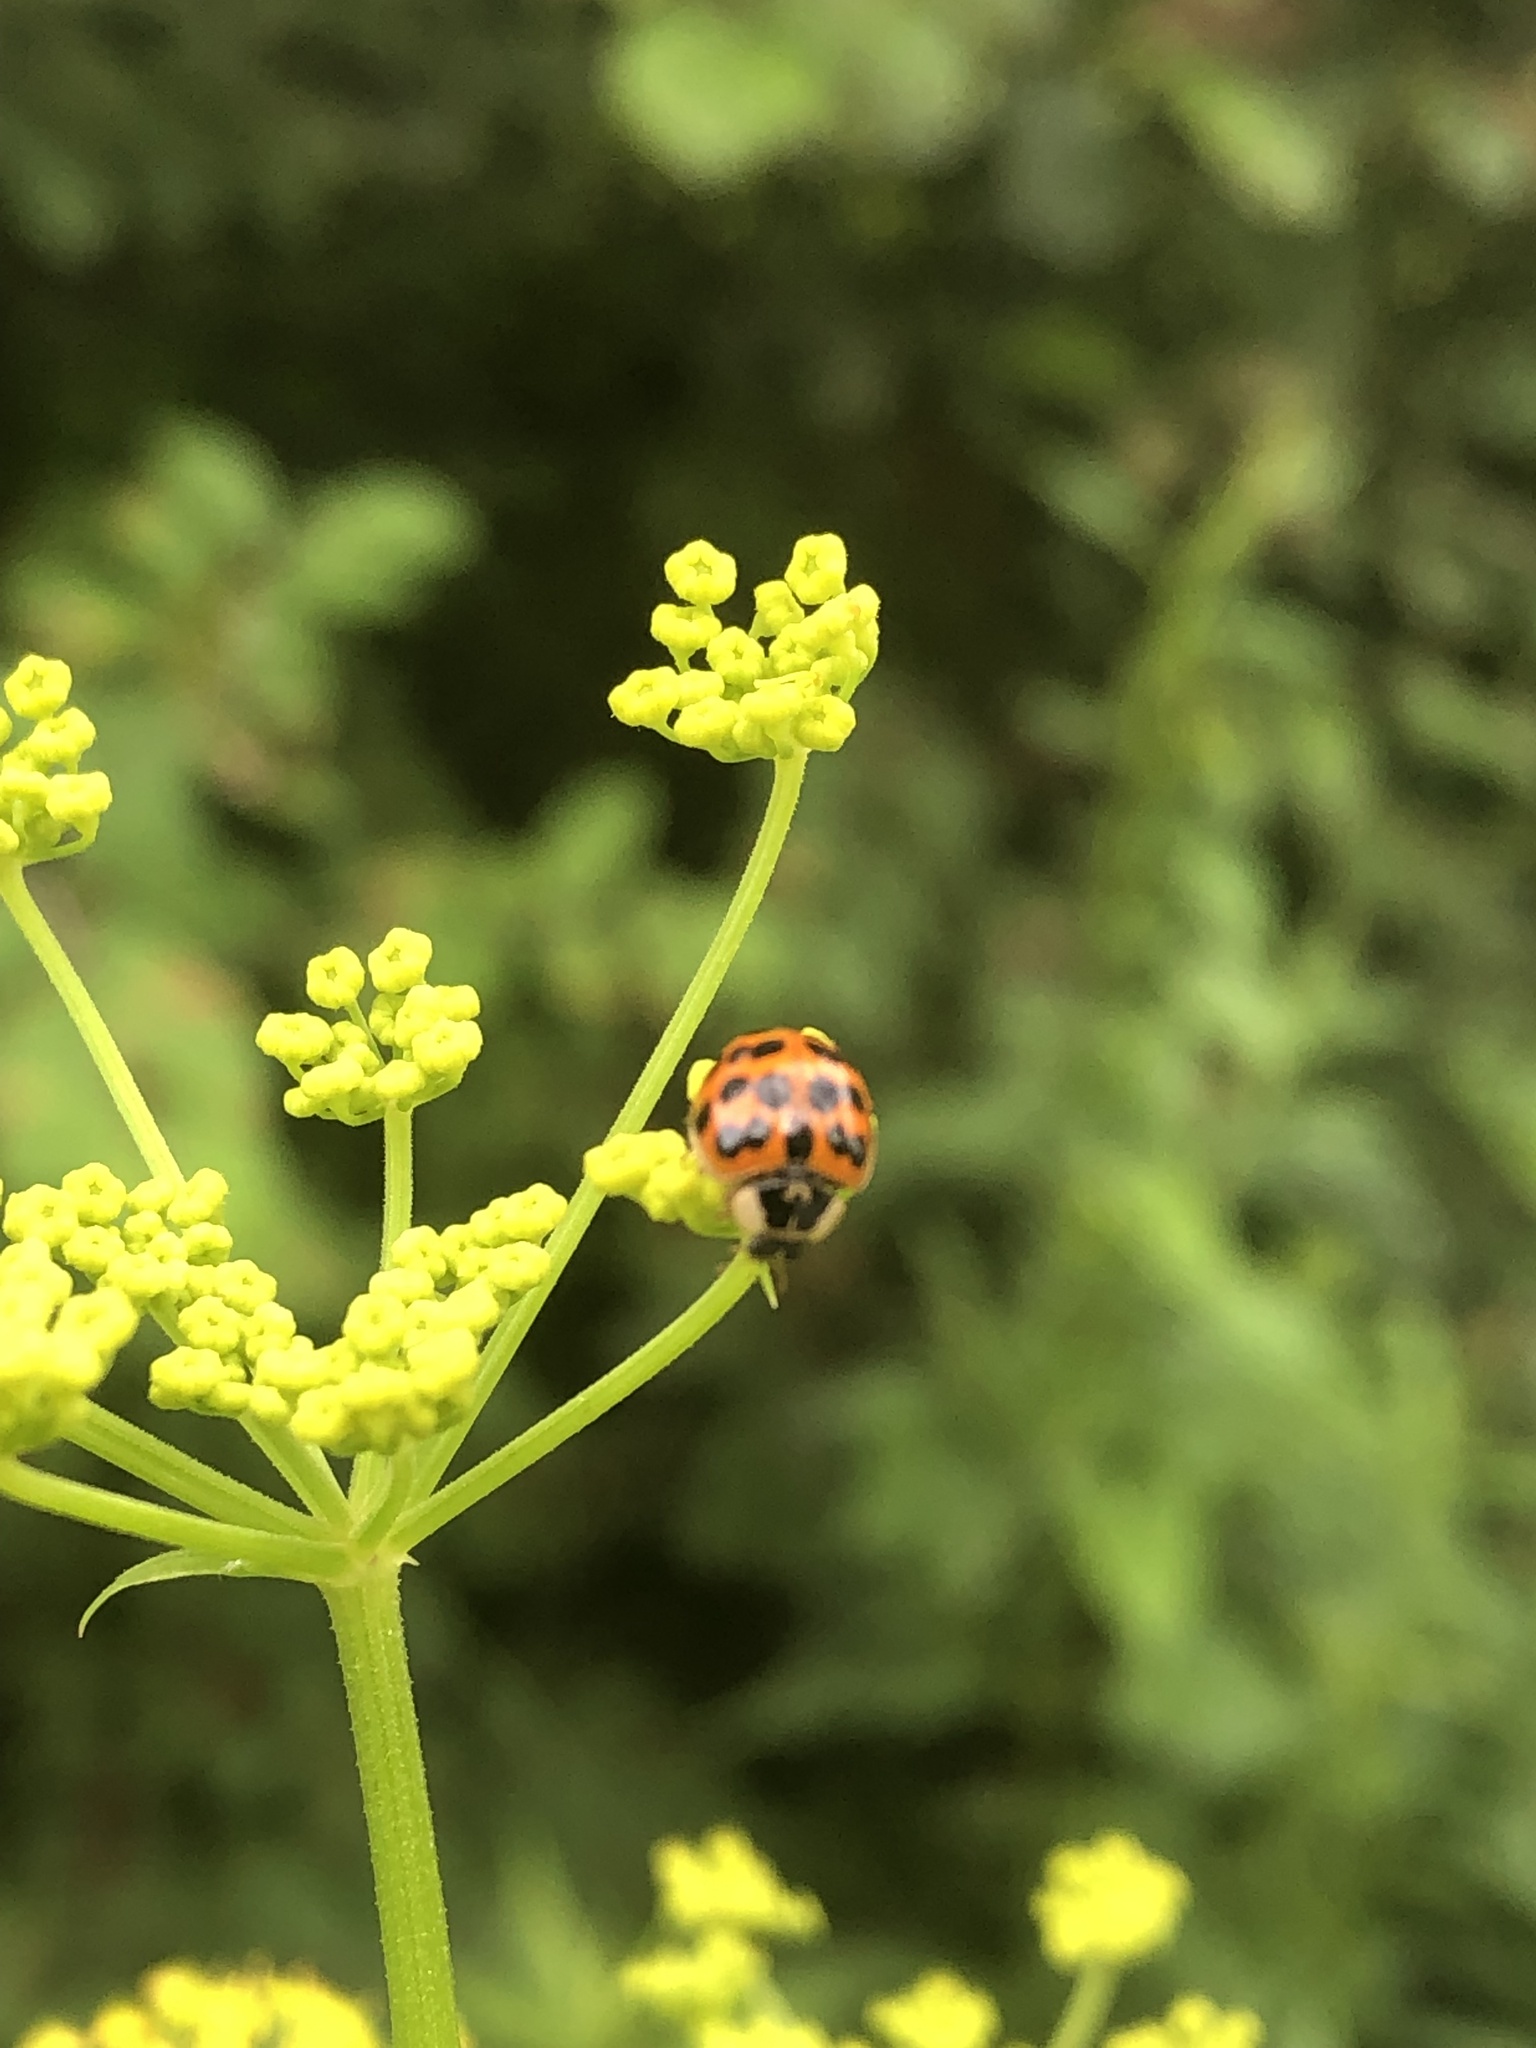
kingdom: Animalia
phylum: Arthropoda
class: Insecta
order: Coleoptera
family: Coccinellidae
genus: Harmonia
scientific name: Harmonia axyridis
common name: Harlequin ladybird
